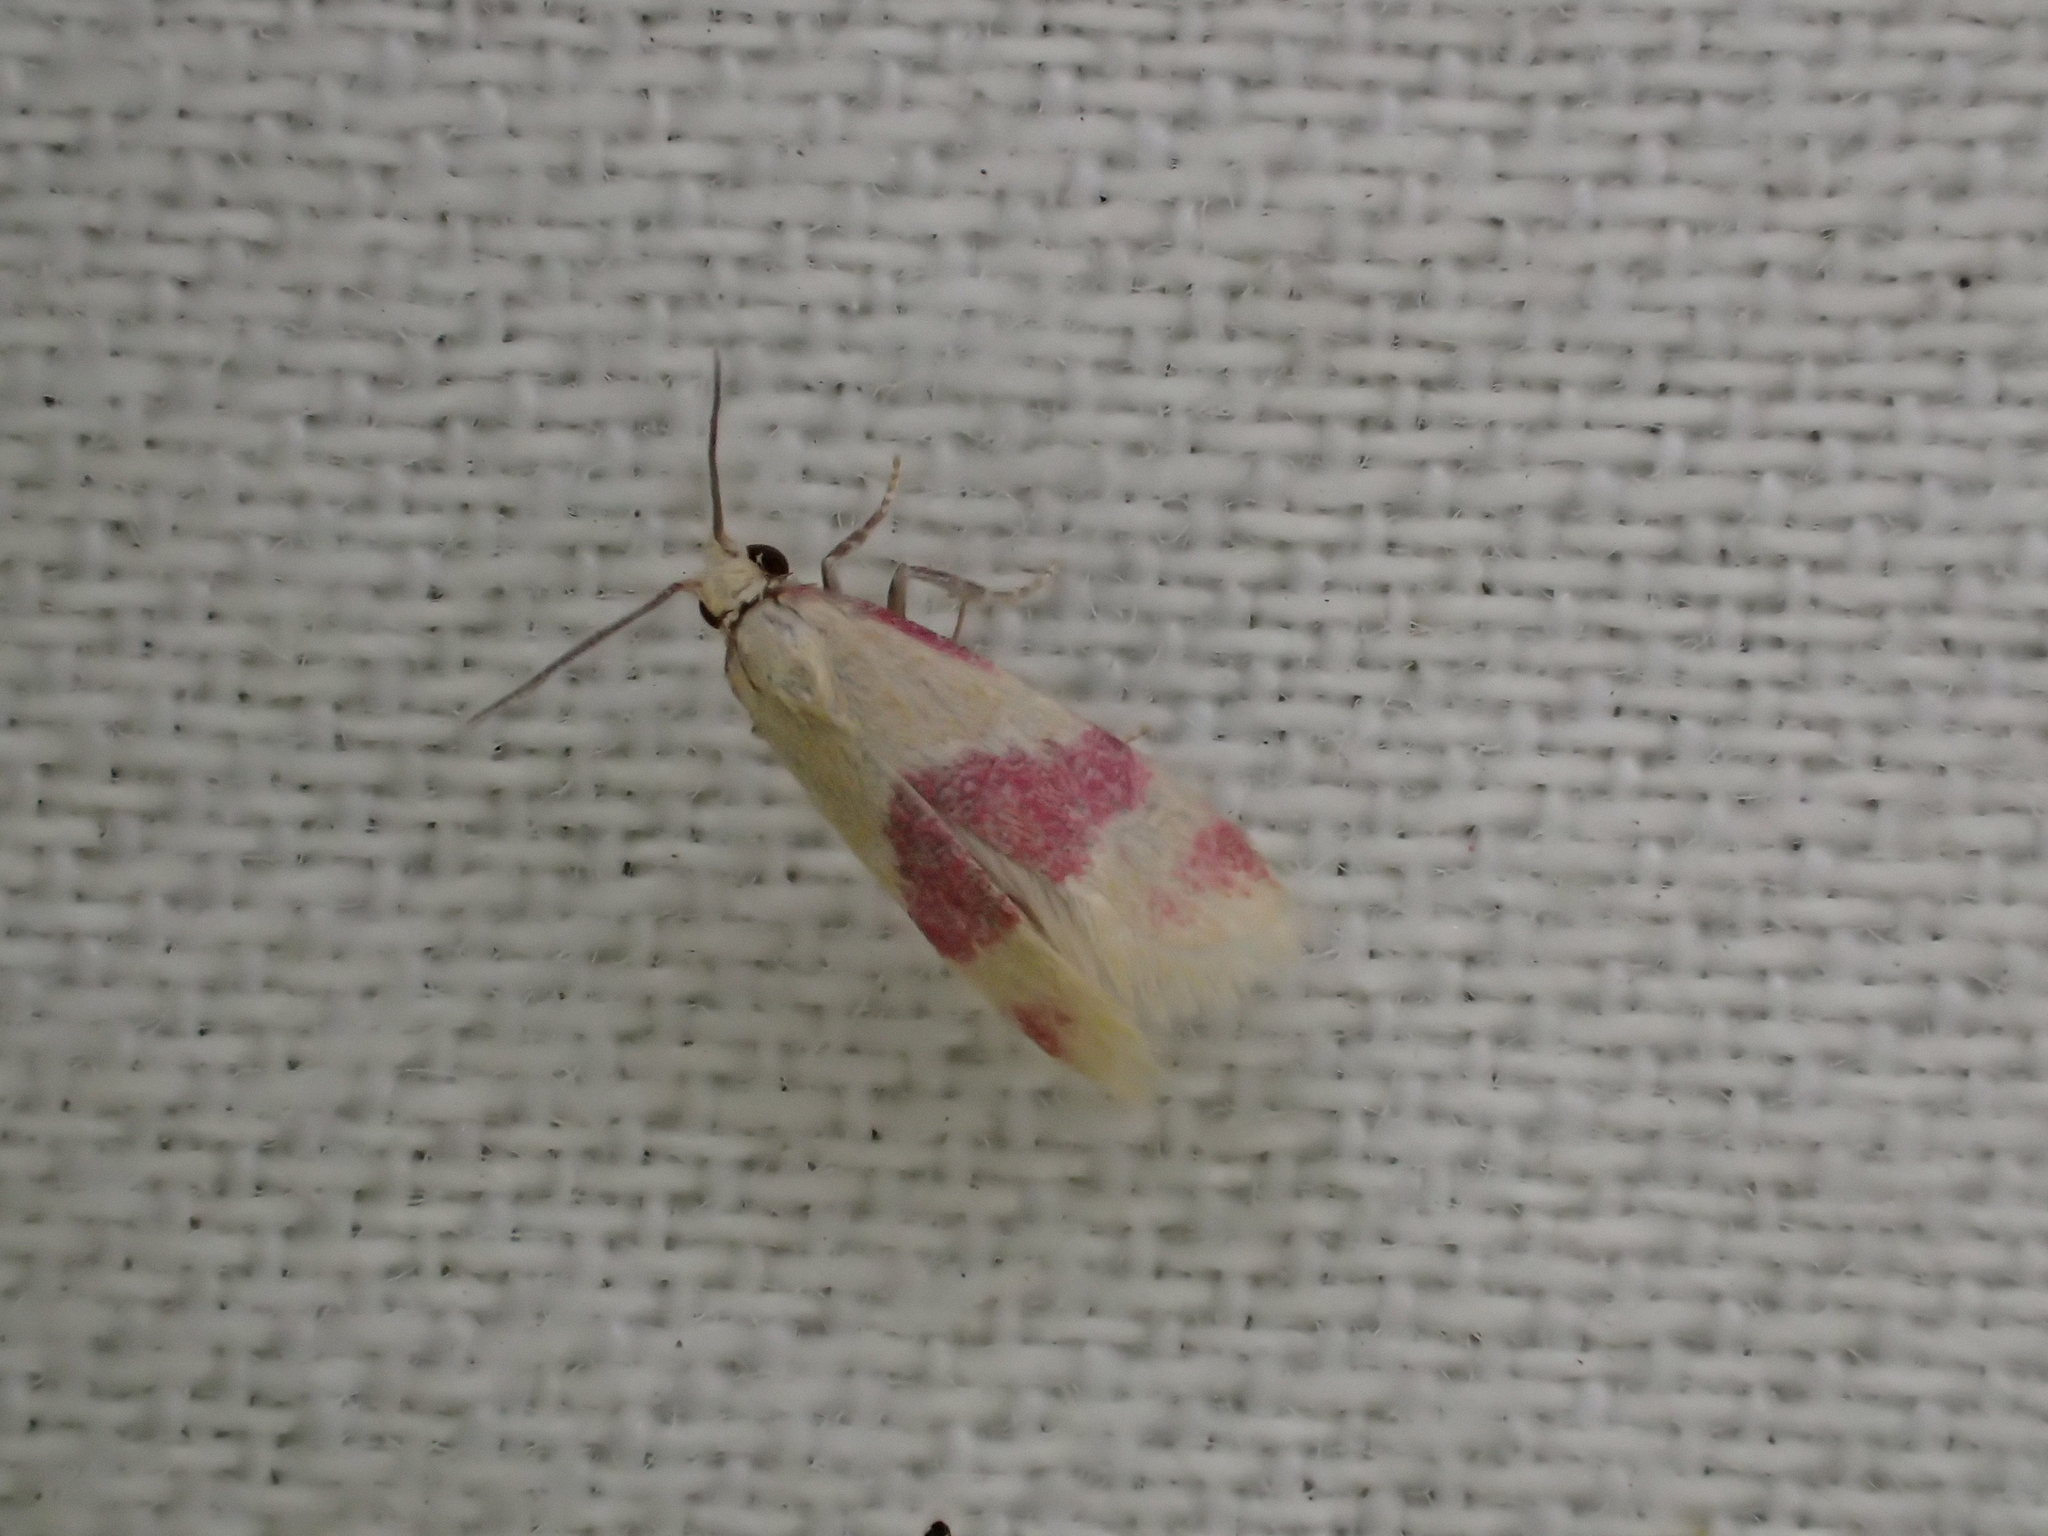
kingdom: Animalia
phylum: Arthropoda
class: Insecta
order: Lepidoptera
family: Tortricidae
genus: Diceratura
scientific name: Diceratura amaranthica
